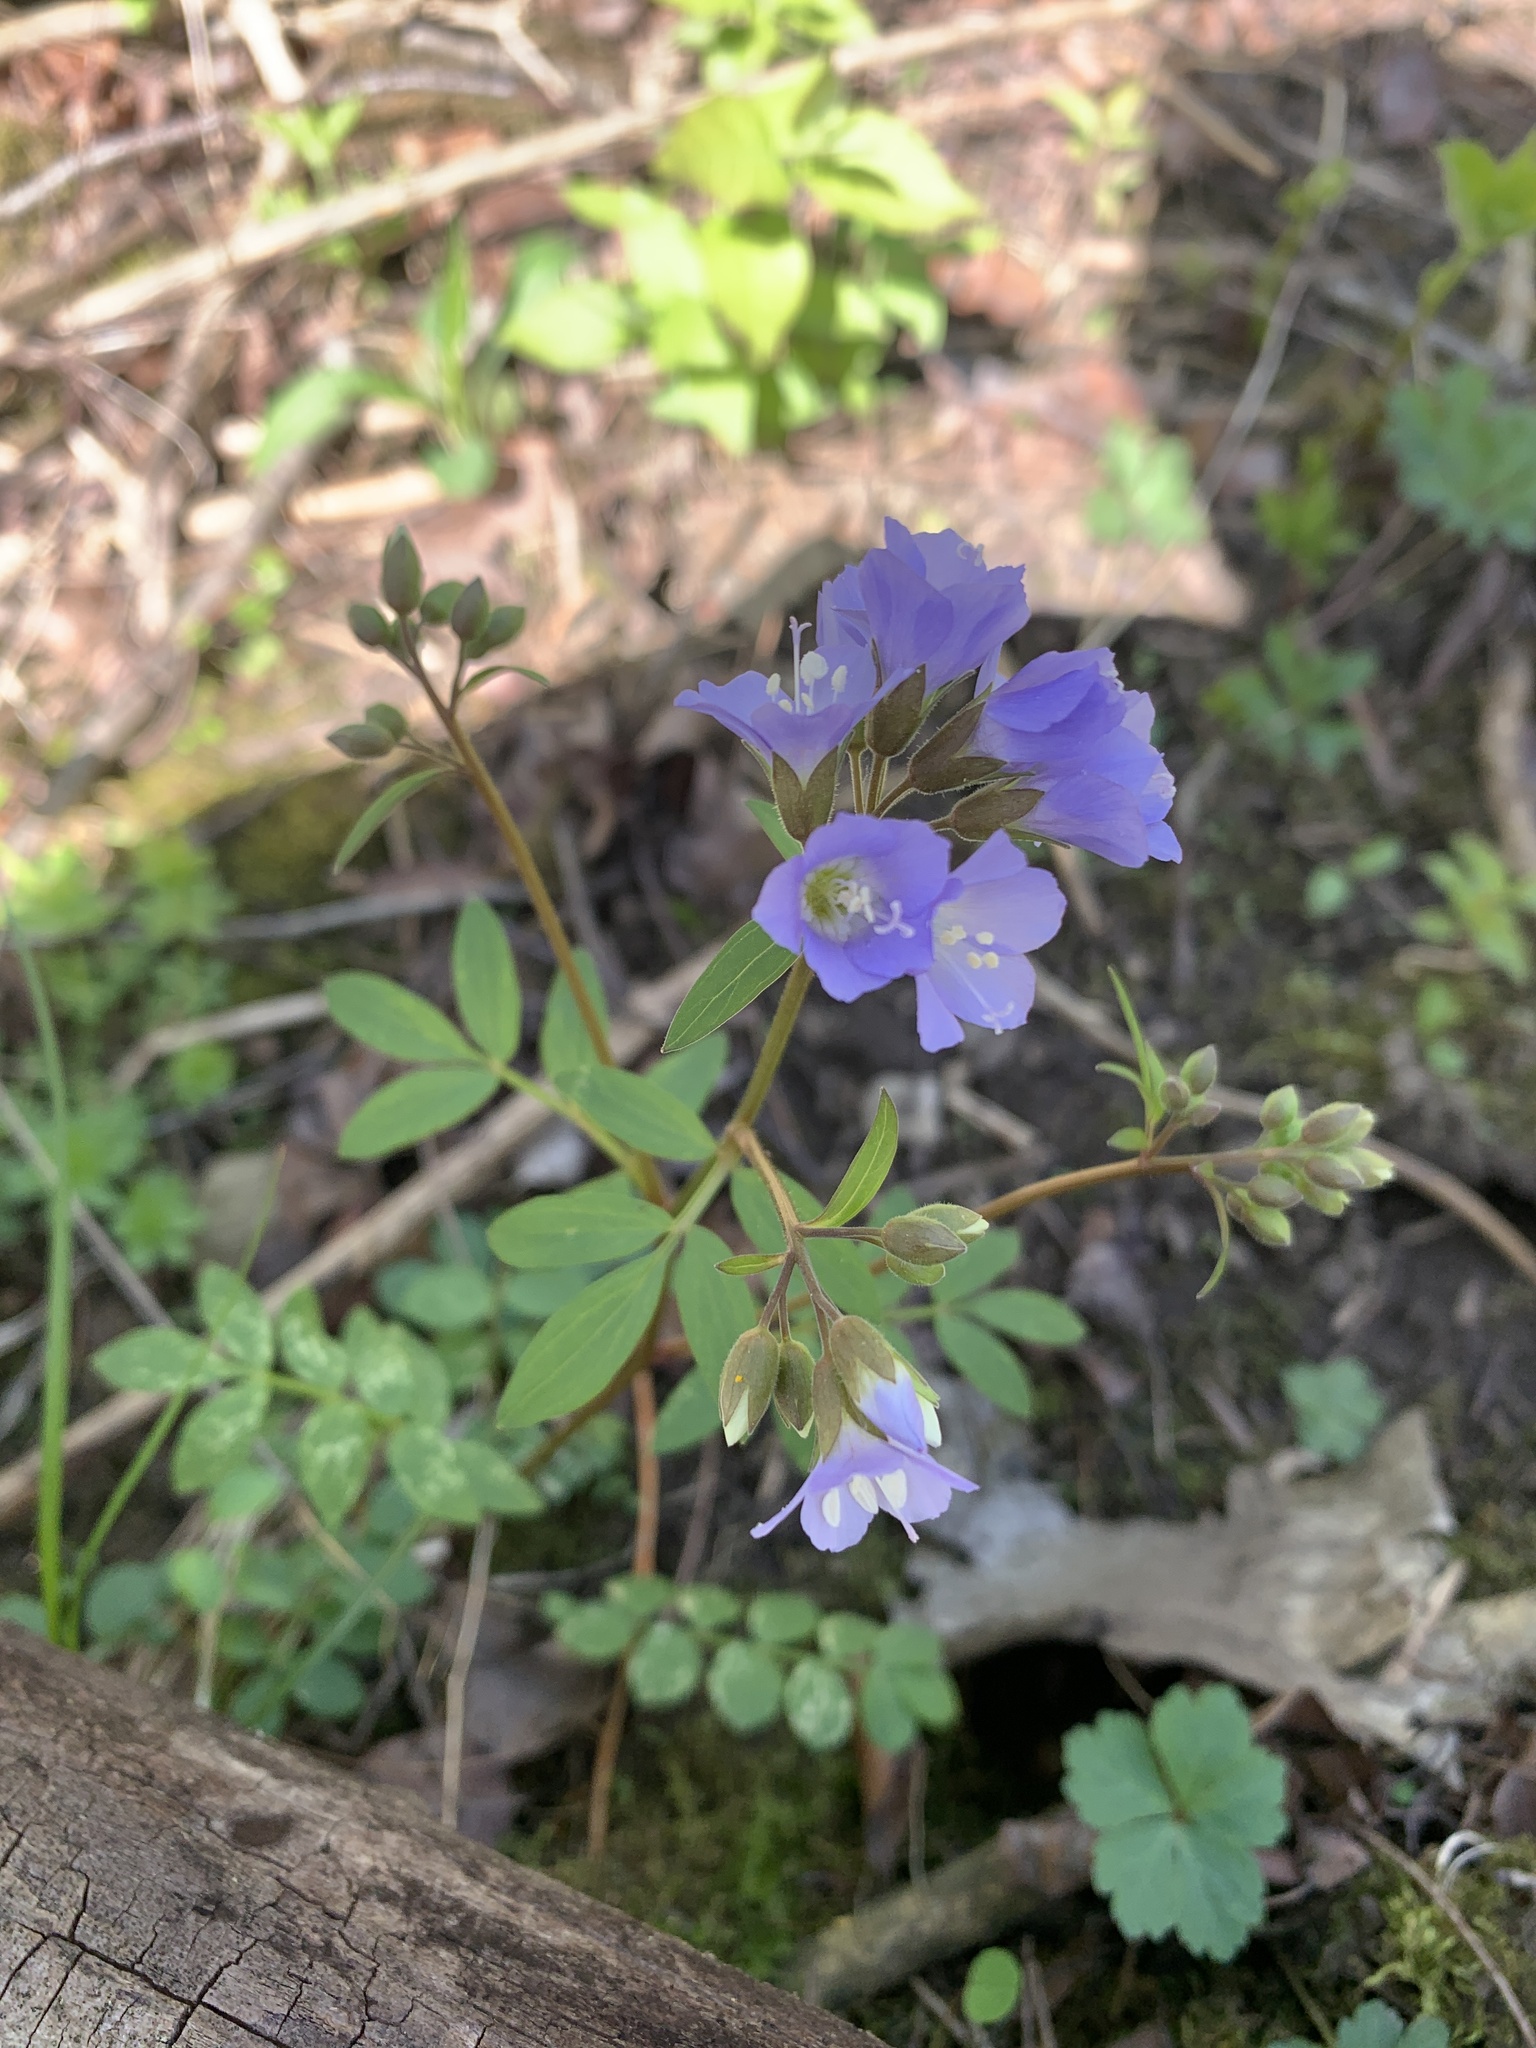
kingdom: Plantae
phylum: Tracheophyta
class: Magnoliopsida
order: Ericales
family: Polemoniaceae
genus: Polemonium
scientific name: Polemonium reptans
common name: Creeping jacob's-ladder
